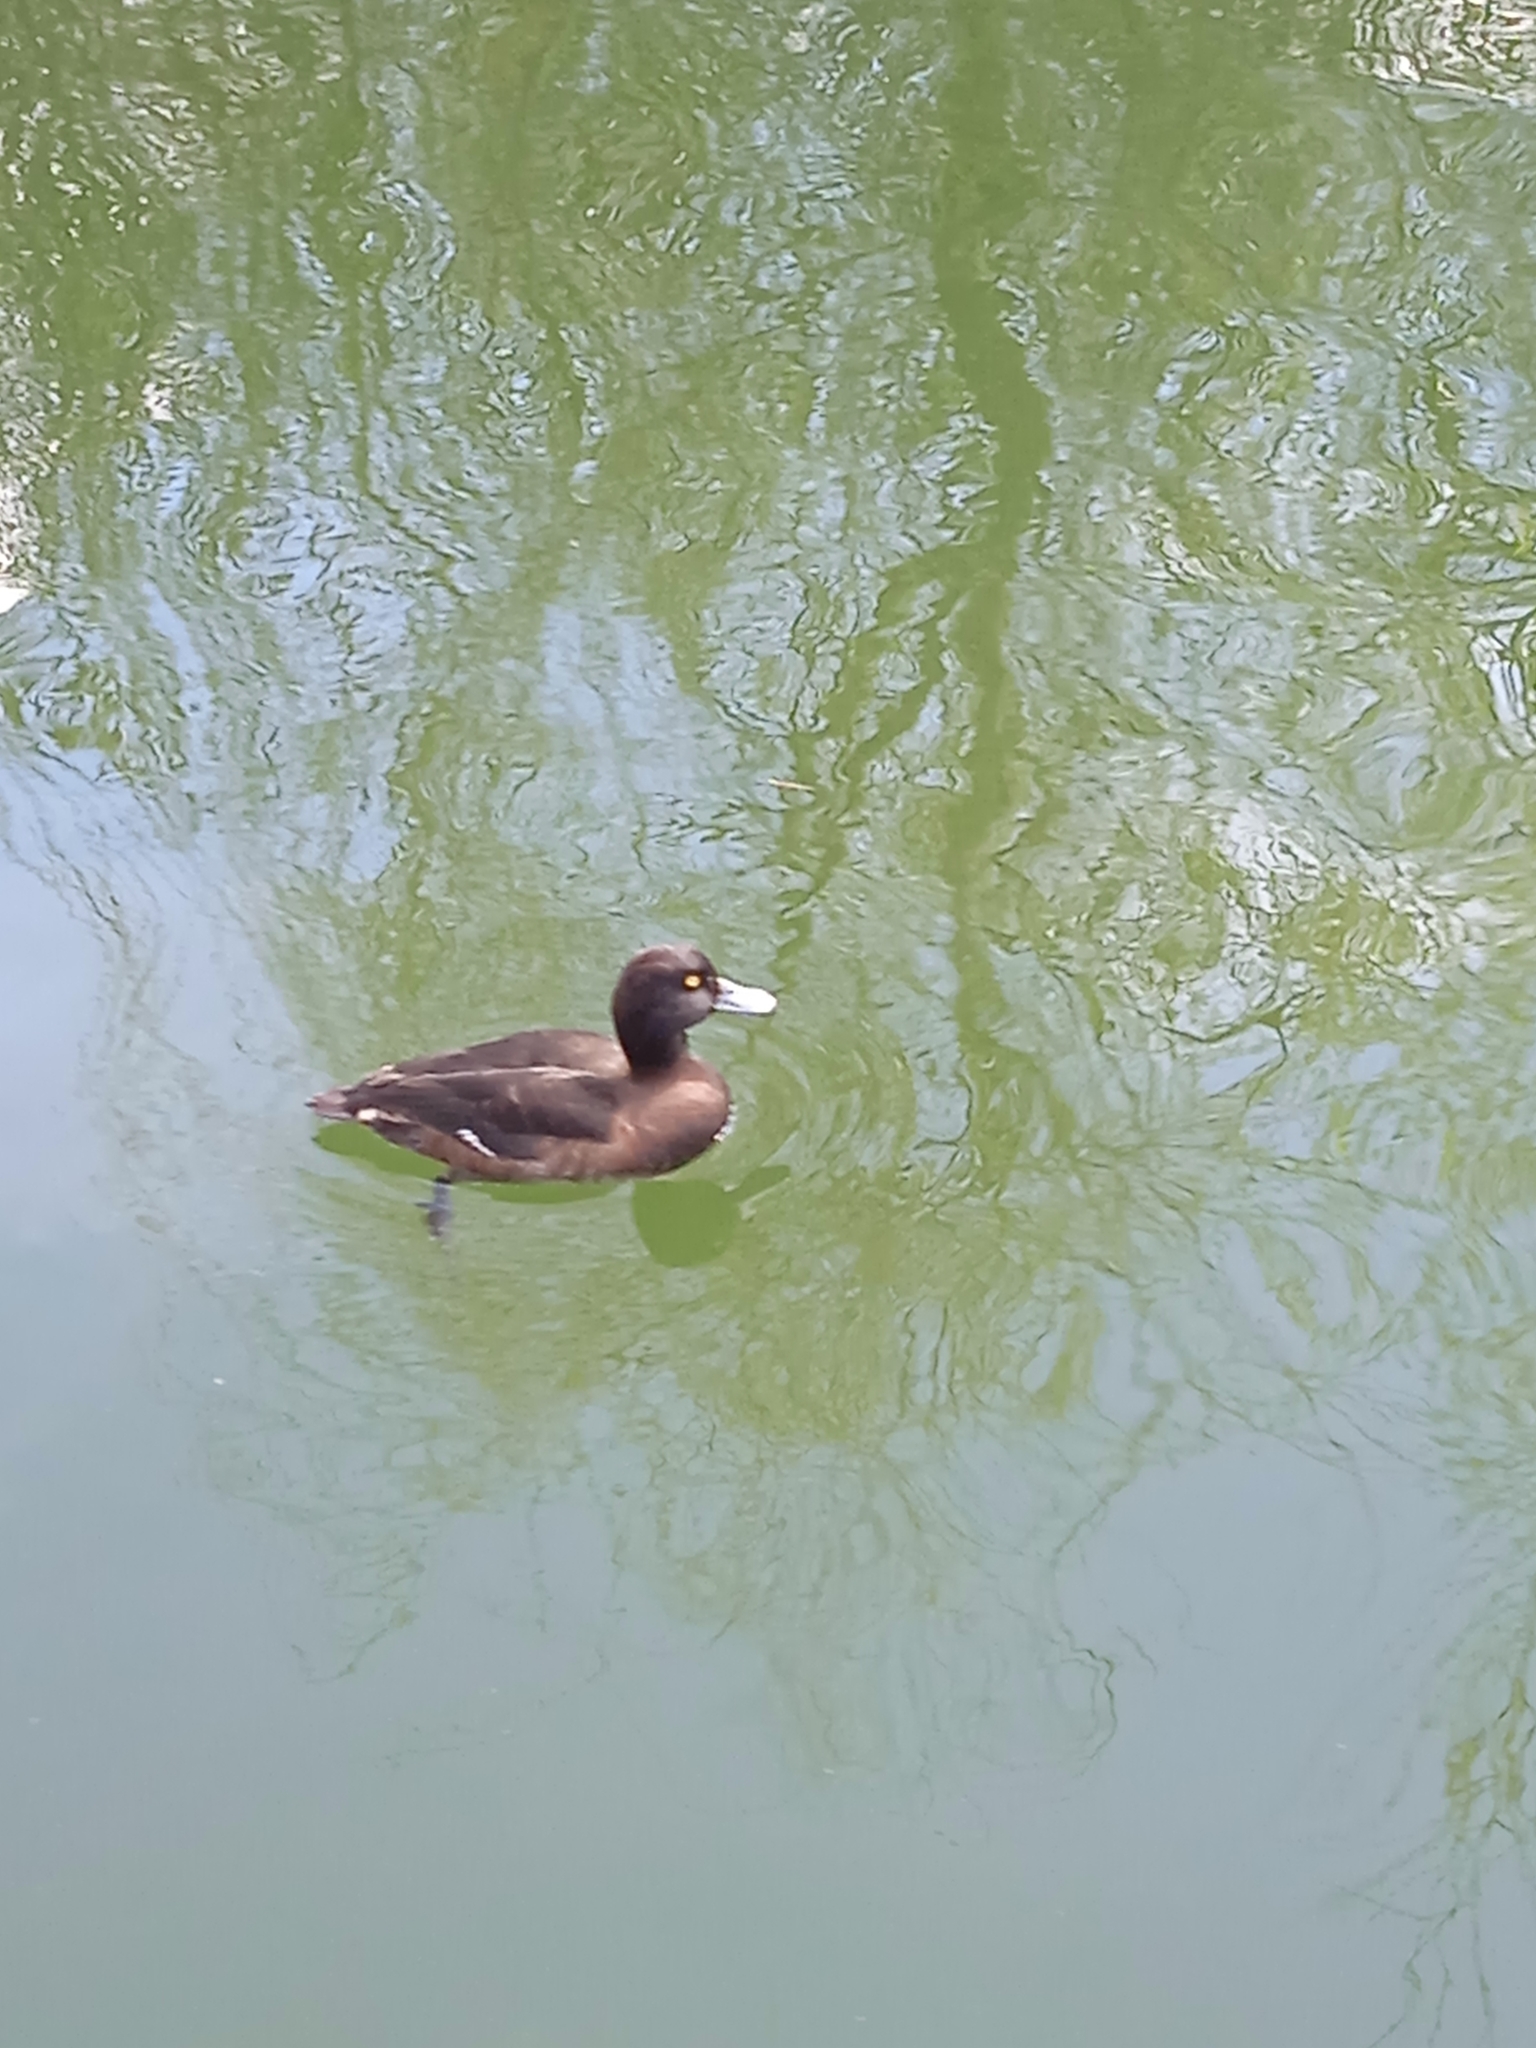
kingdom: Animalia
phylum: Chordata
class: Aves
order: Anseriformes
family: Anatidae
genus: Aythya
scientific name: Aythya fuligula
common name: Tufted duck
